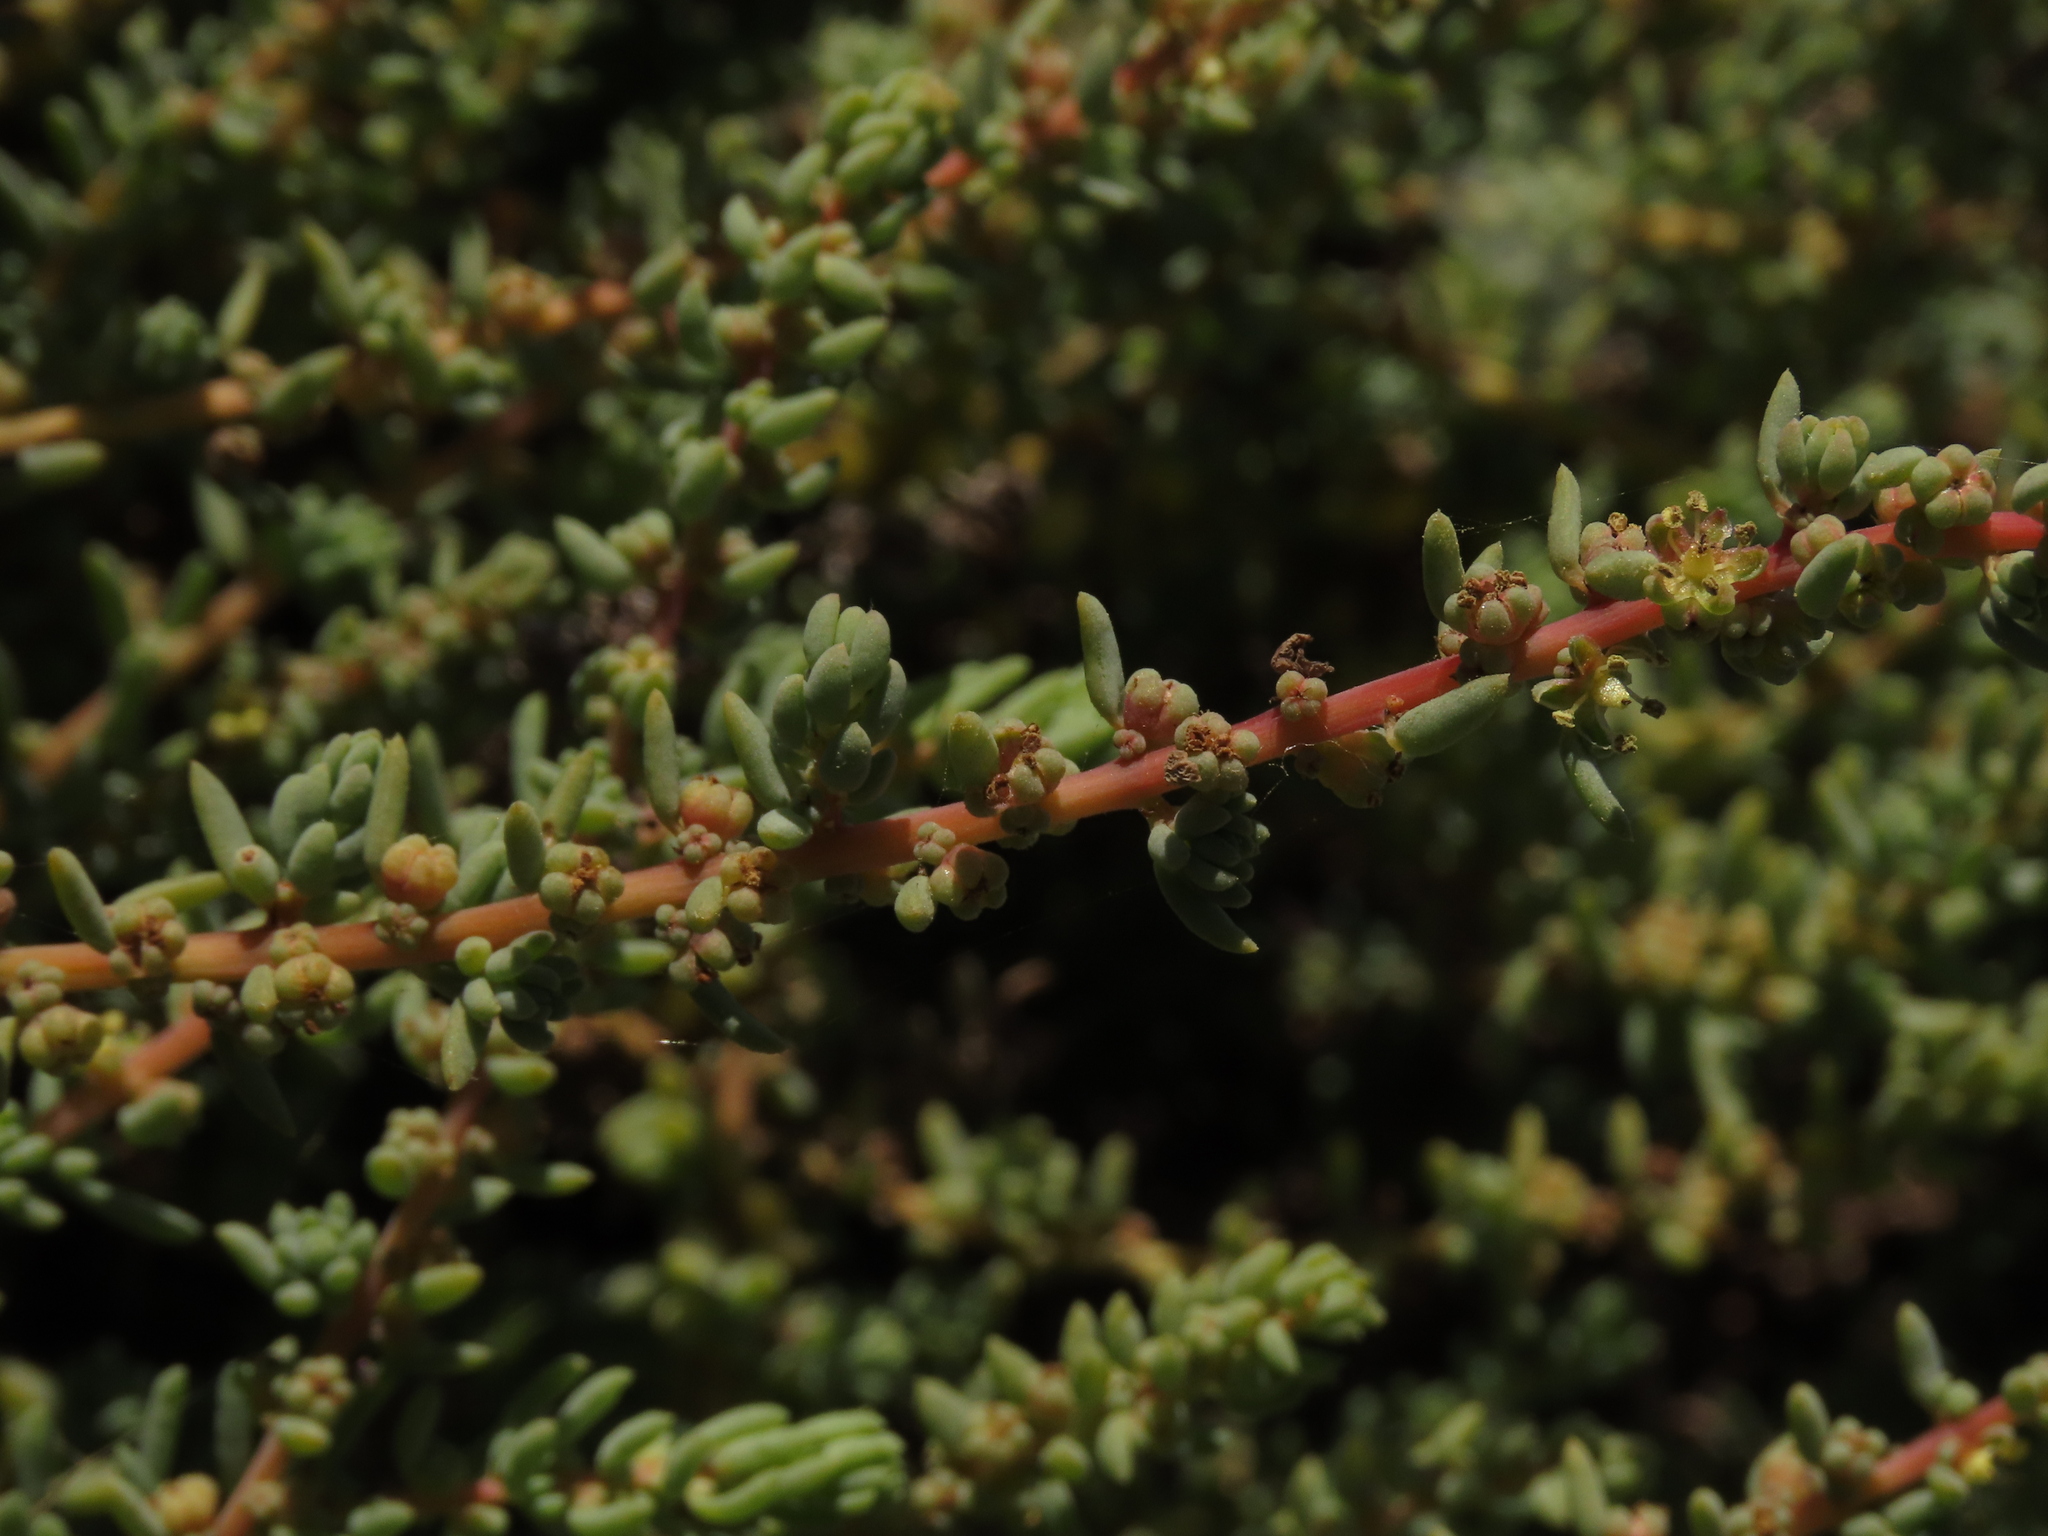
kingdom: Plantae
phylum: Tracheophyta
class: Magnoliopsida
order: Caryophyllales
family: Amaranthaceae
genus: Suaeda
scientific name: Suaeda foliosa
